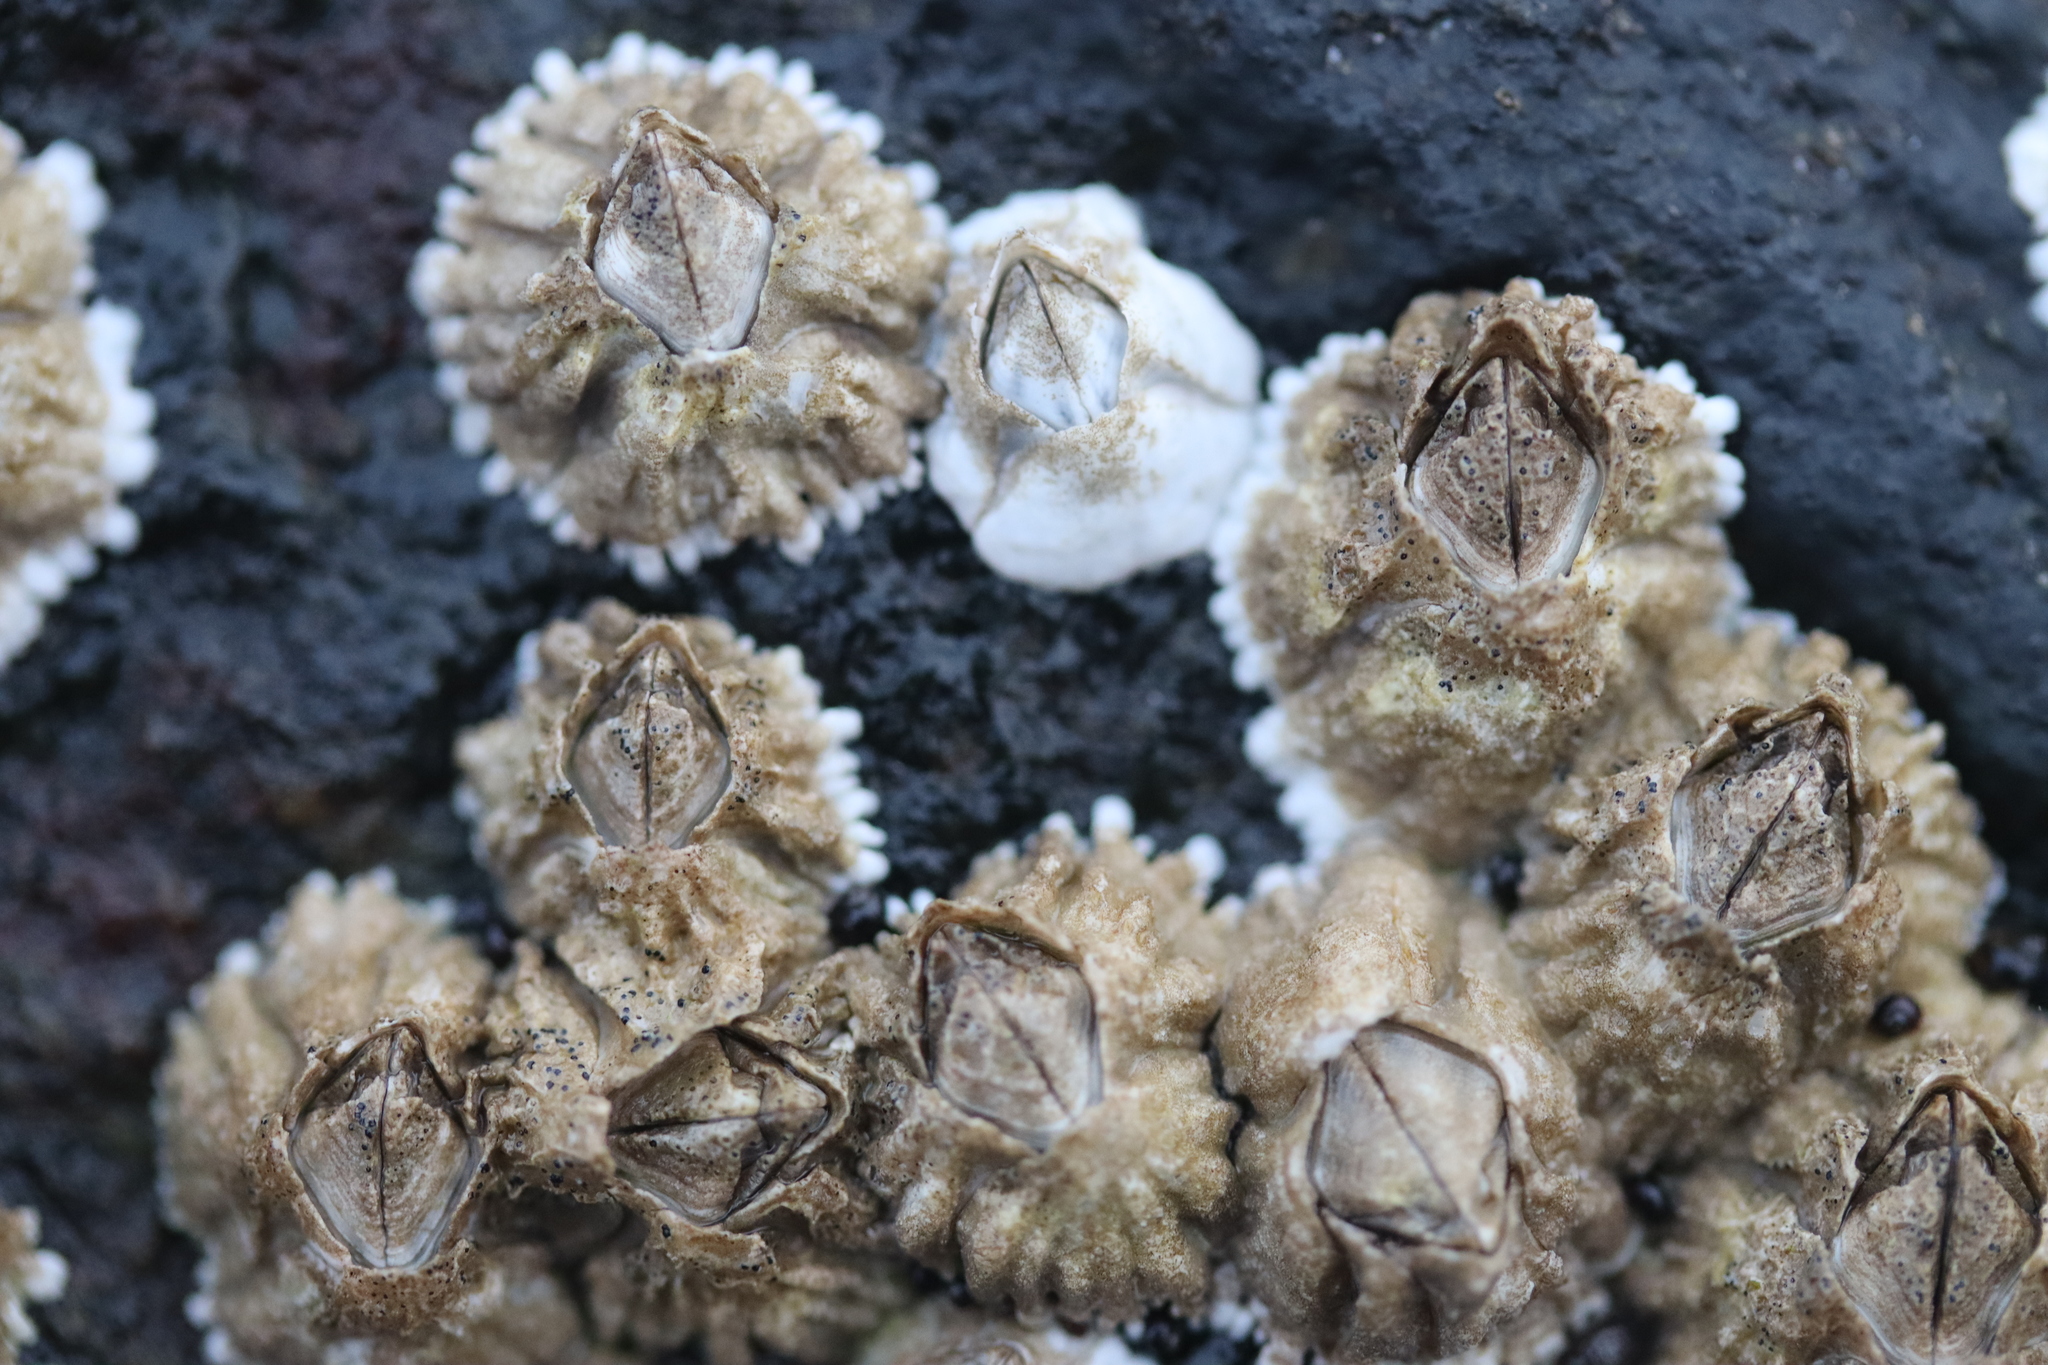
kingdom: Animalia
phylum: Arthropoda
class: Maxillopoda
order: Sessilia
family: Archaeobalanidae
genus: Semibalanus
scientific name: Semibalanus balanoides
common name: Acorn barnacle
